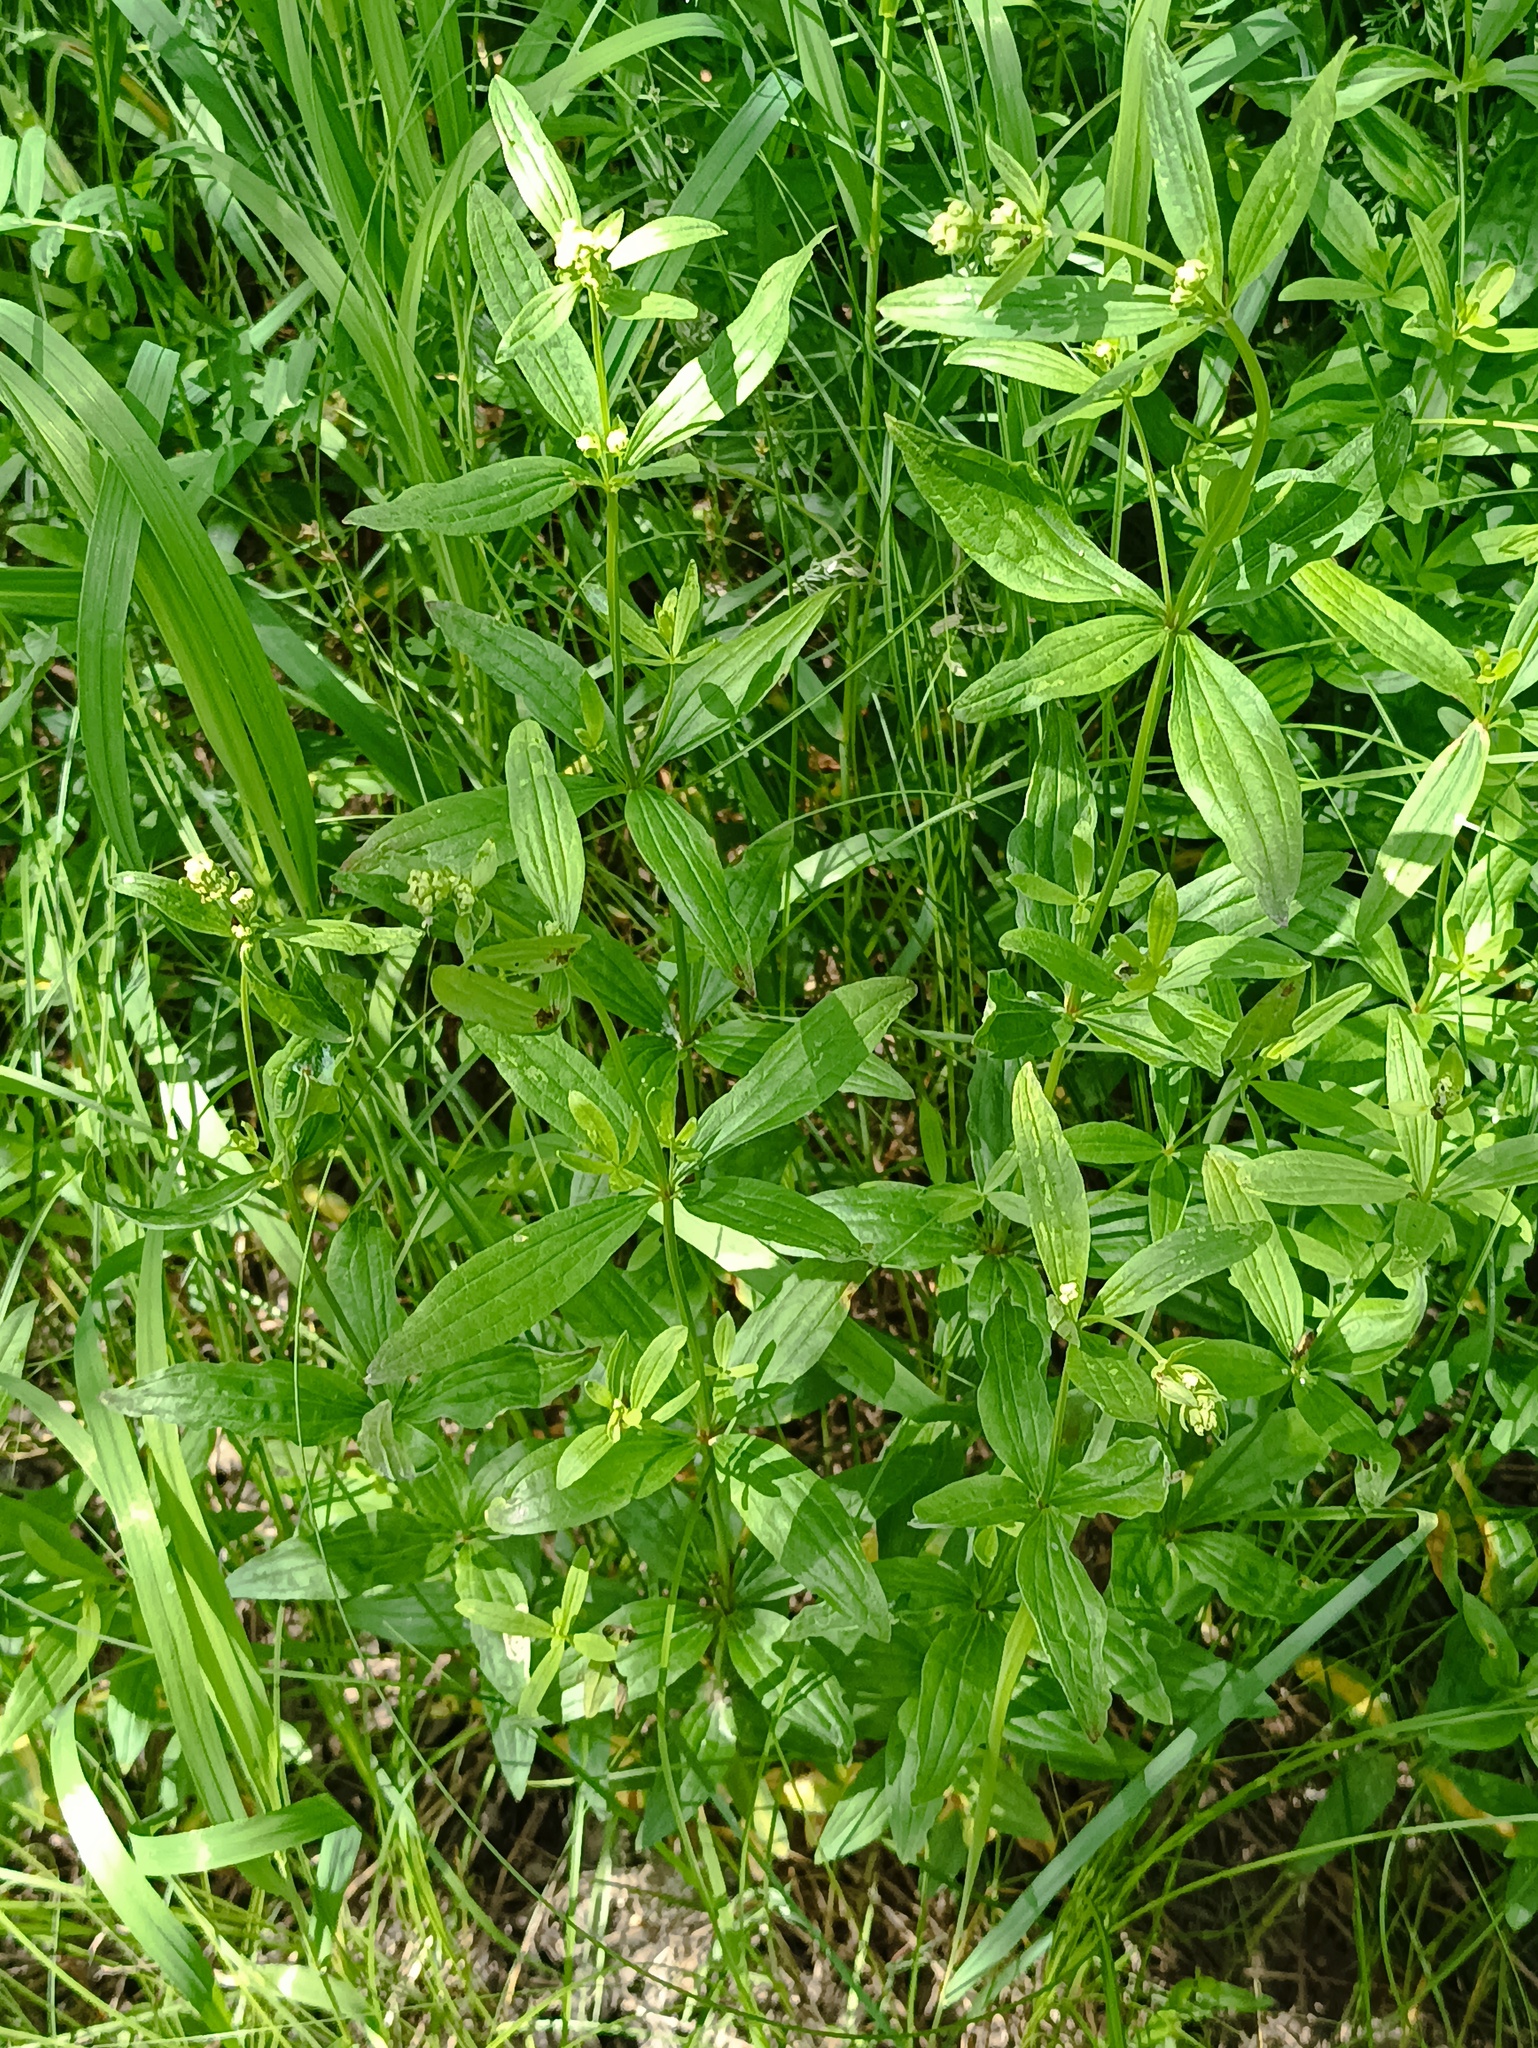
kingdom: Plantae
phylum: Tracheophyta
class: Magnoliopsida
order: Gentianales
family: Rubiaceae
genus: Galium
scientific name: Galium rubioides
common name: European bedstraw
